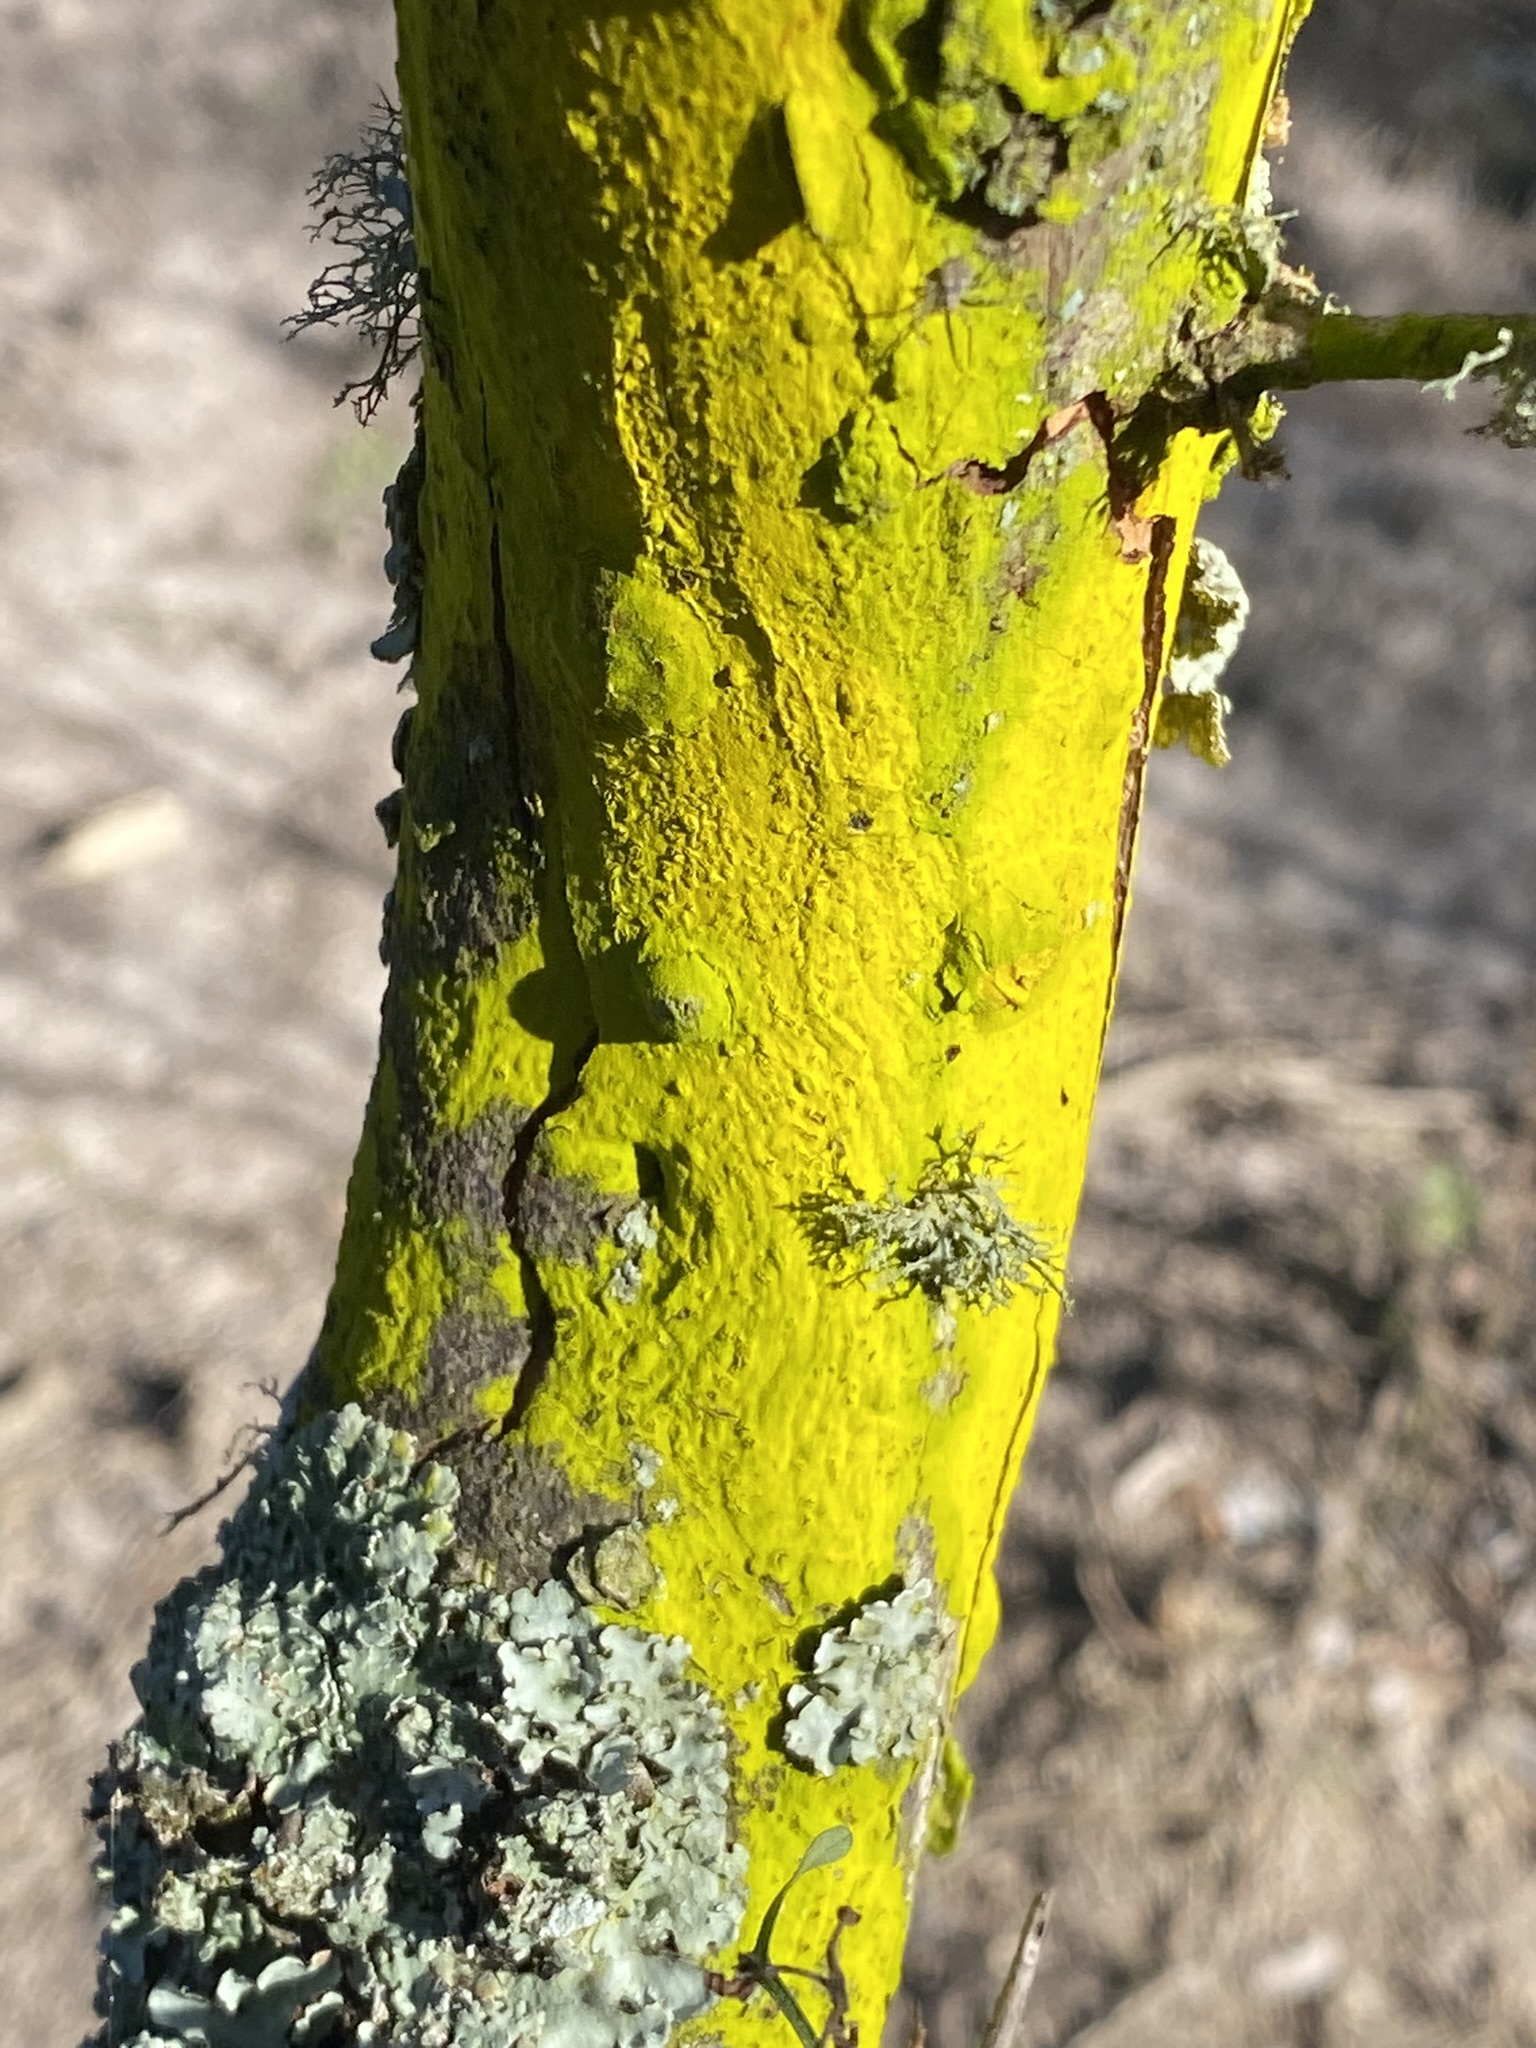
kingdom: Fungi
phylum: Ascomycota
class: Arthoniomycetes
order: Arthoniales
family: Chrysotrichaceae
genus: Chrysothrix
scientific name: Chrysothrix candelaris
